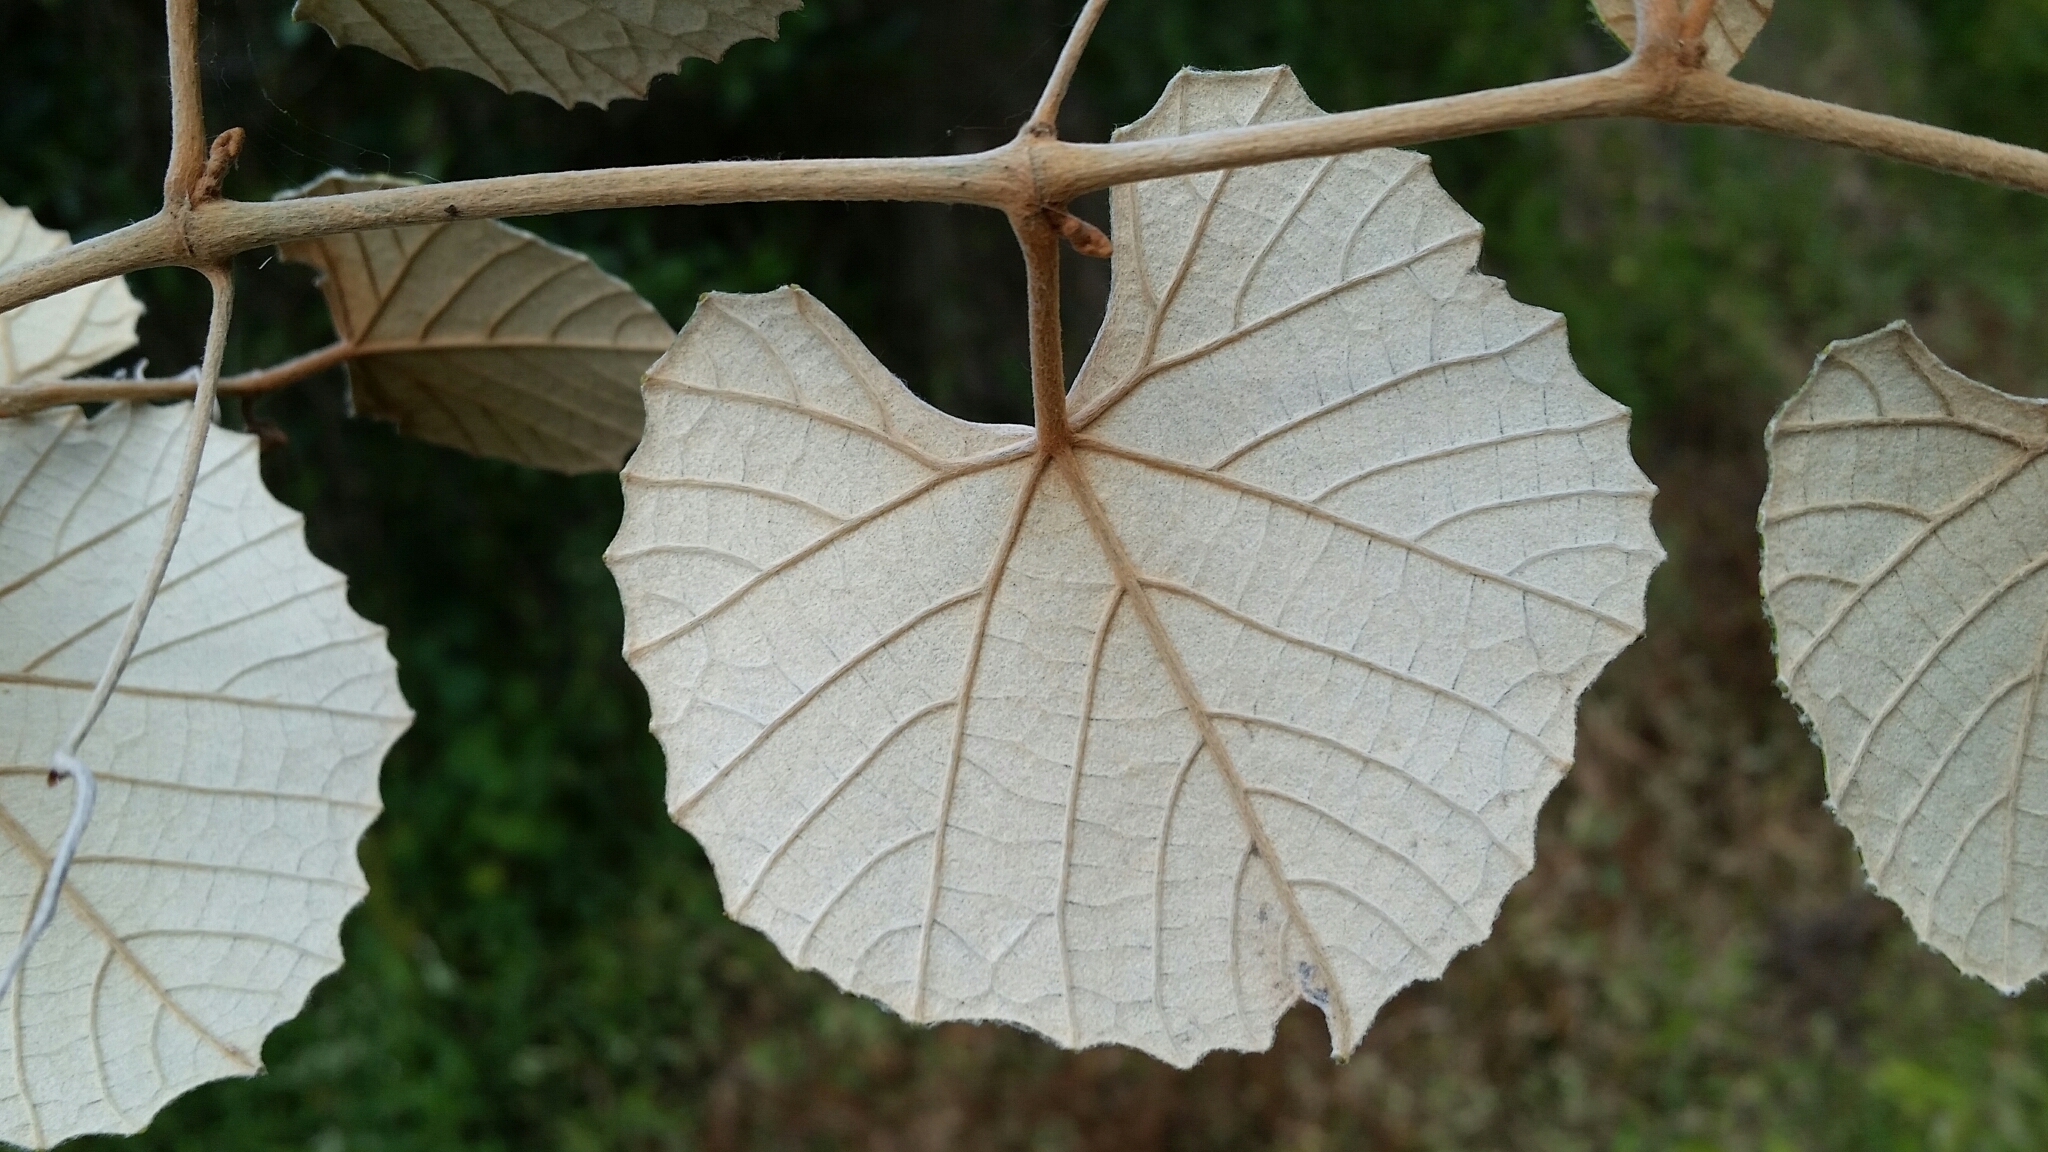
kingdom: Plantae
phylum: Tracheophyta
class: Magnoliopsida
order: Vitales
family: Vitaceae
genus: Vitis
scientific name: Vitis shuttleworthii
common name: Caloosa grape
